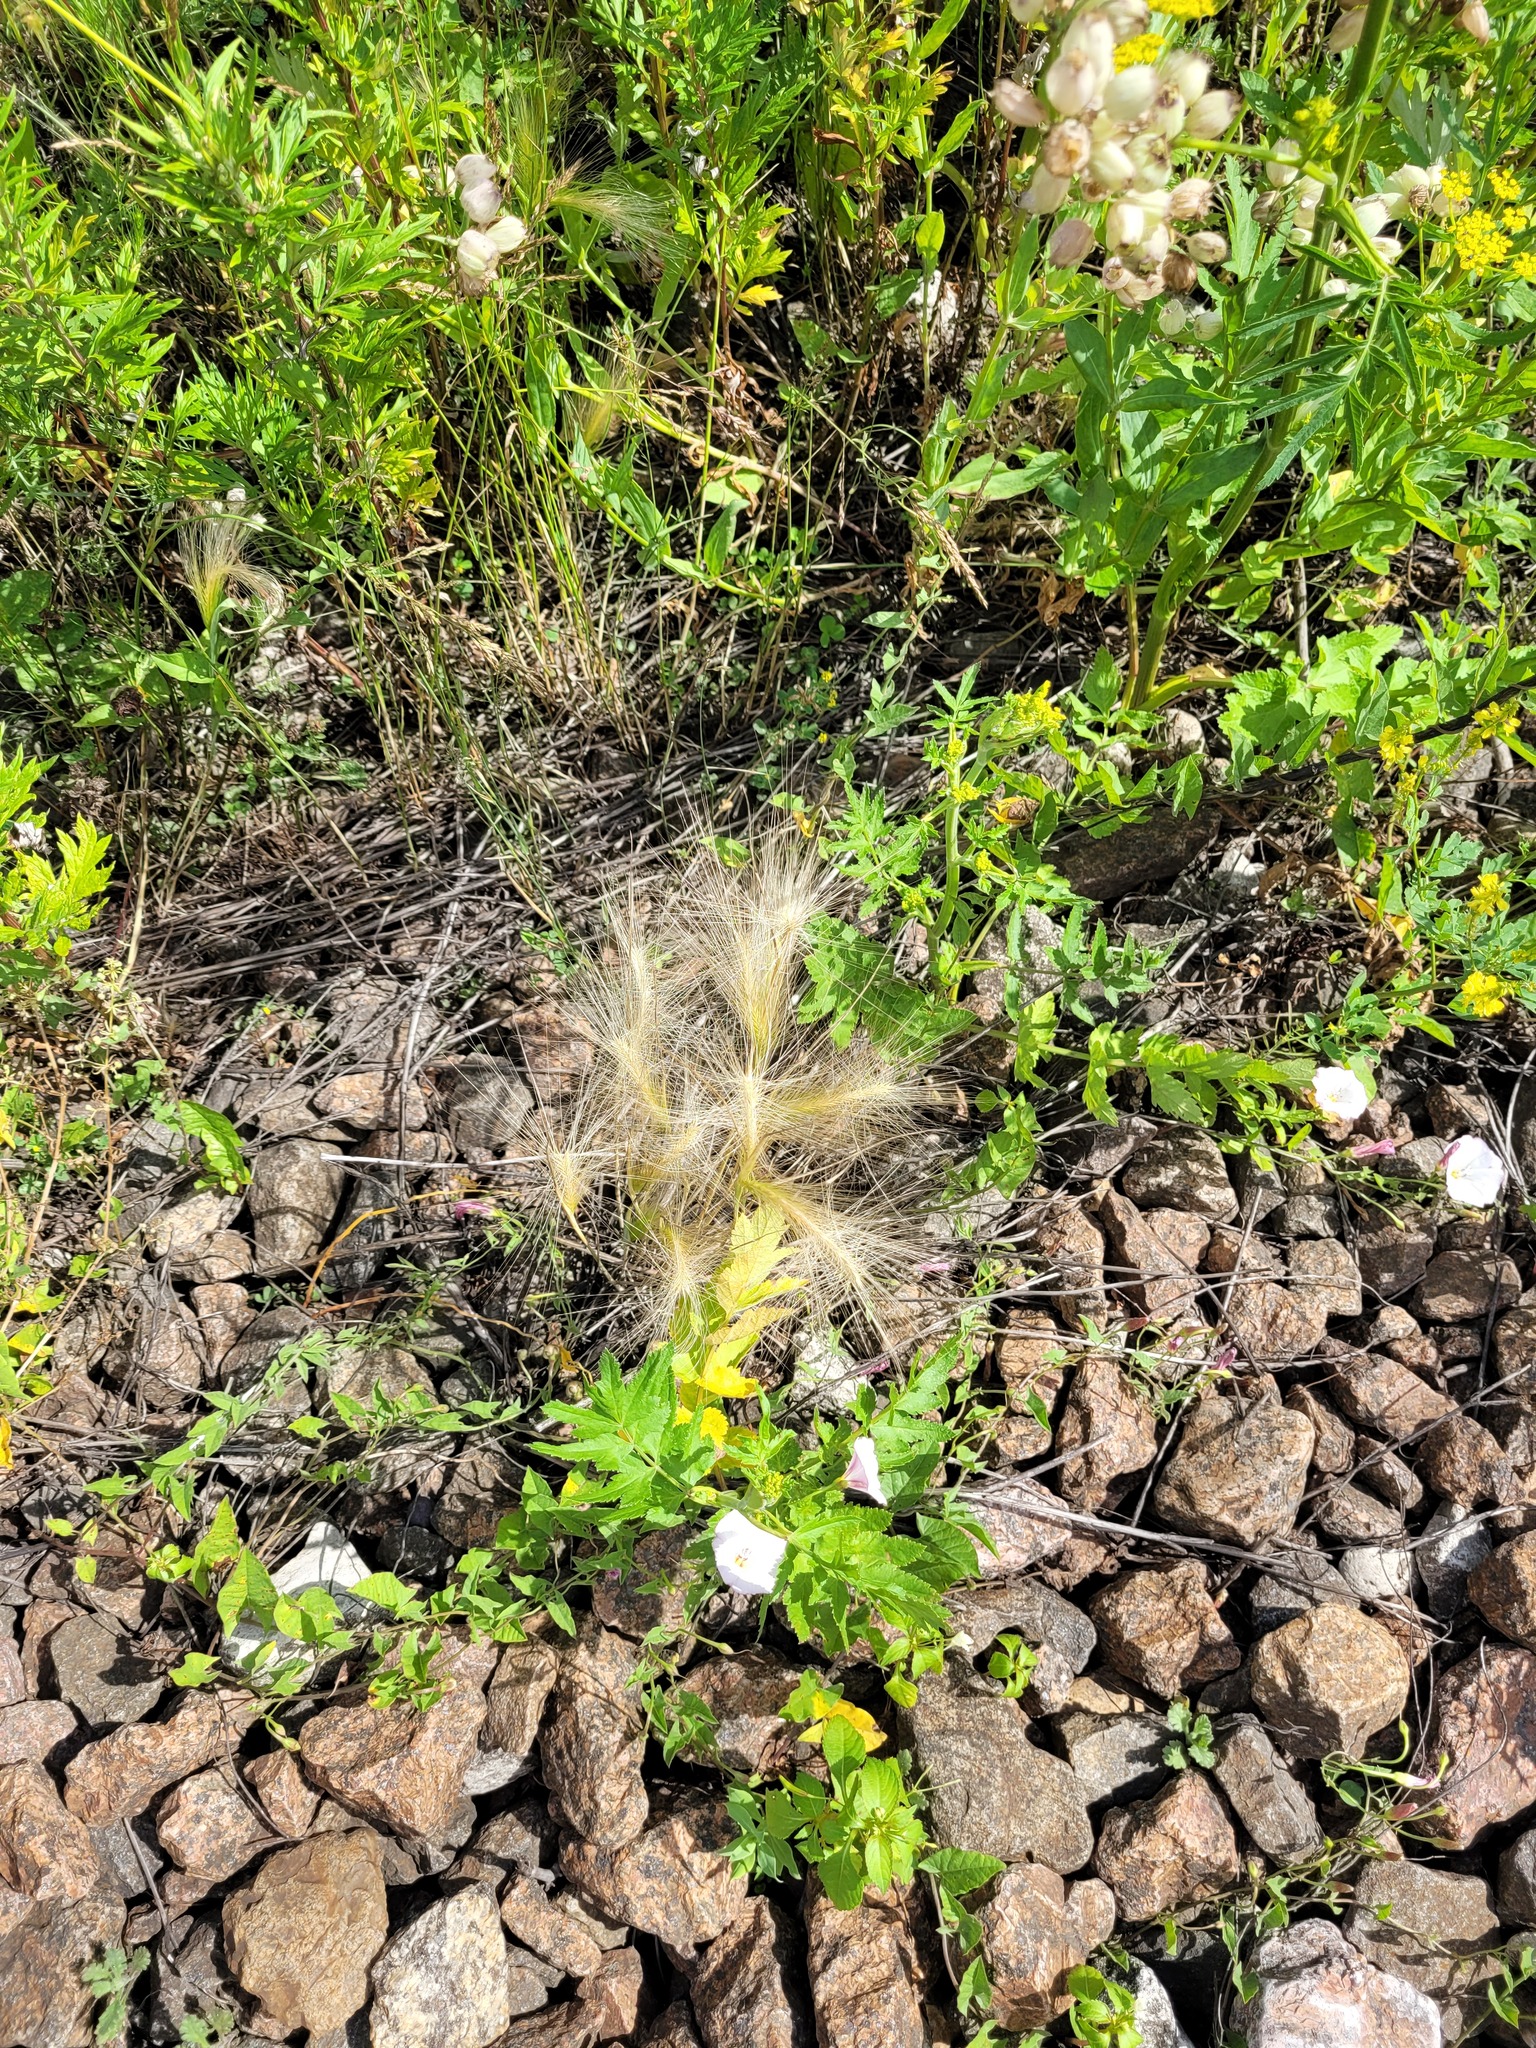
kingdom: Plantae
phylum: Tracheophyta
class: Liliopsida
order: Poales
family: Poaceae
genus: Hordeum
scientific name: Hordeum jubatum
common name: Foxtail barley
